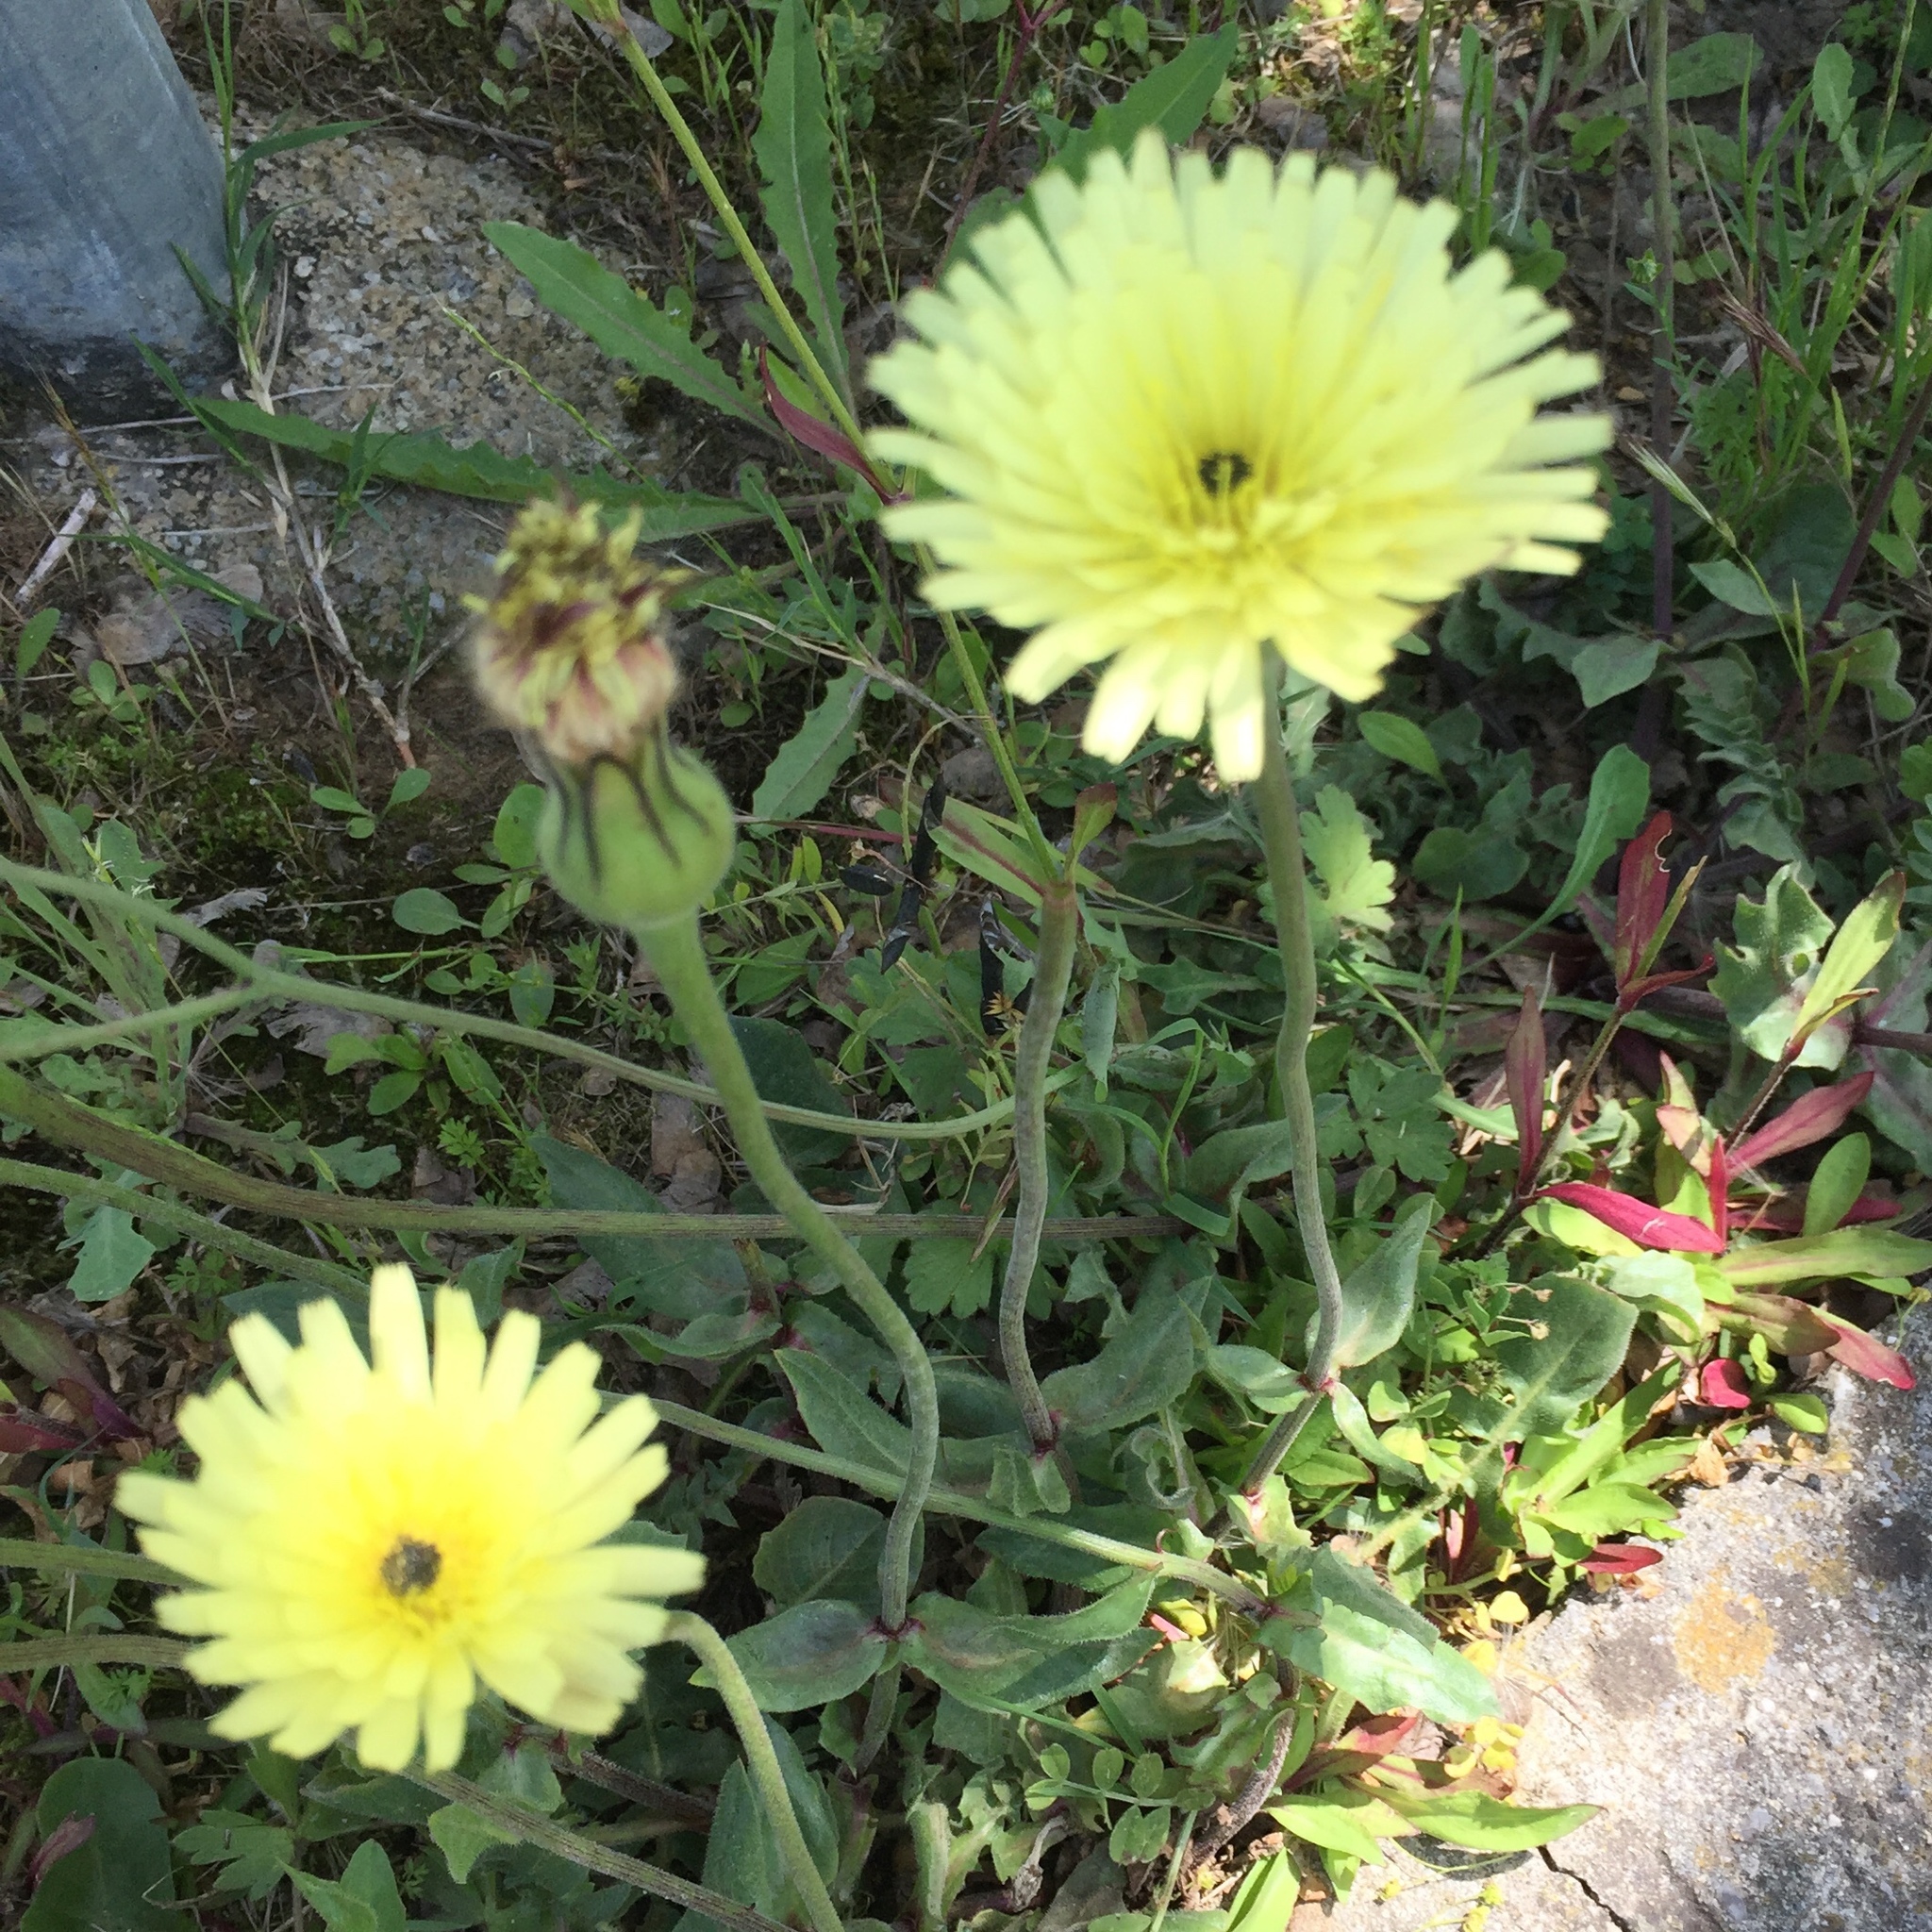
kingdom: Plantae
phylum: Tracheophyta
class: Magnoliopsida
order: Asterales
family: Asteraceae
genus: Urospermum
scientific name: Urospermum dalechampii
